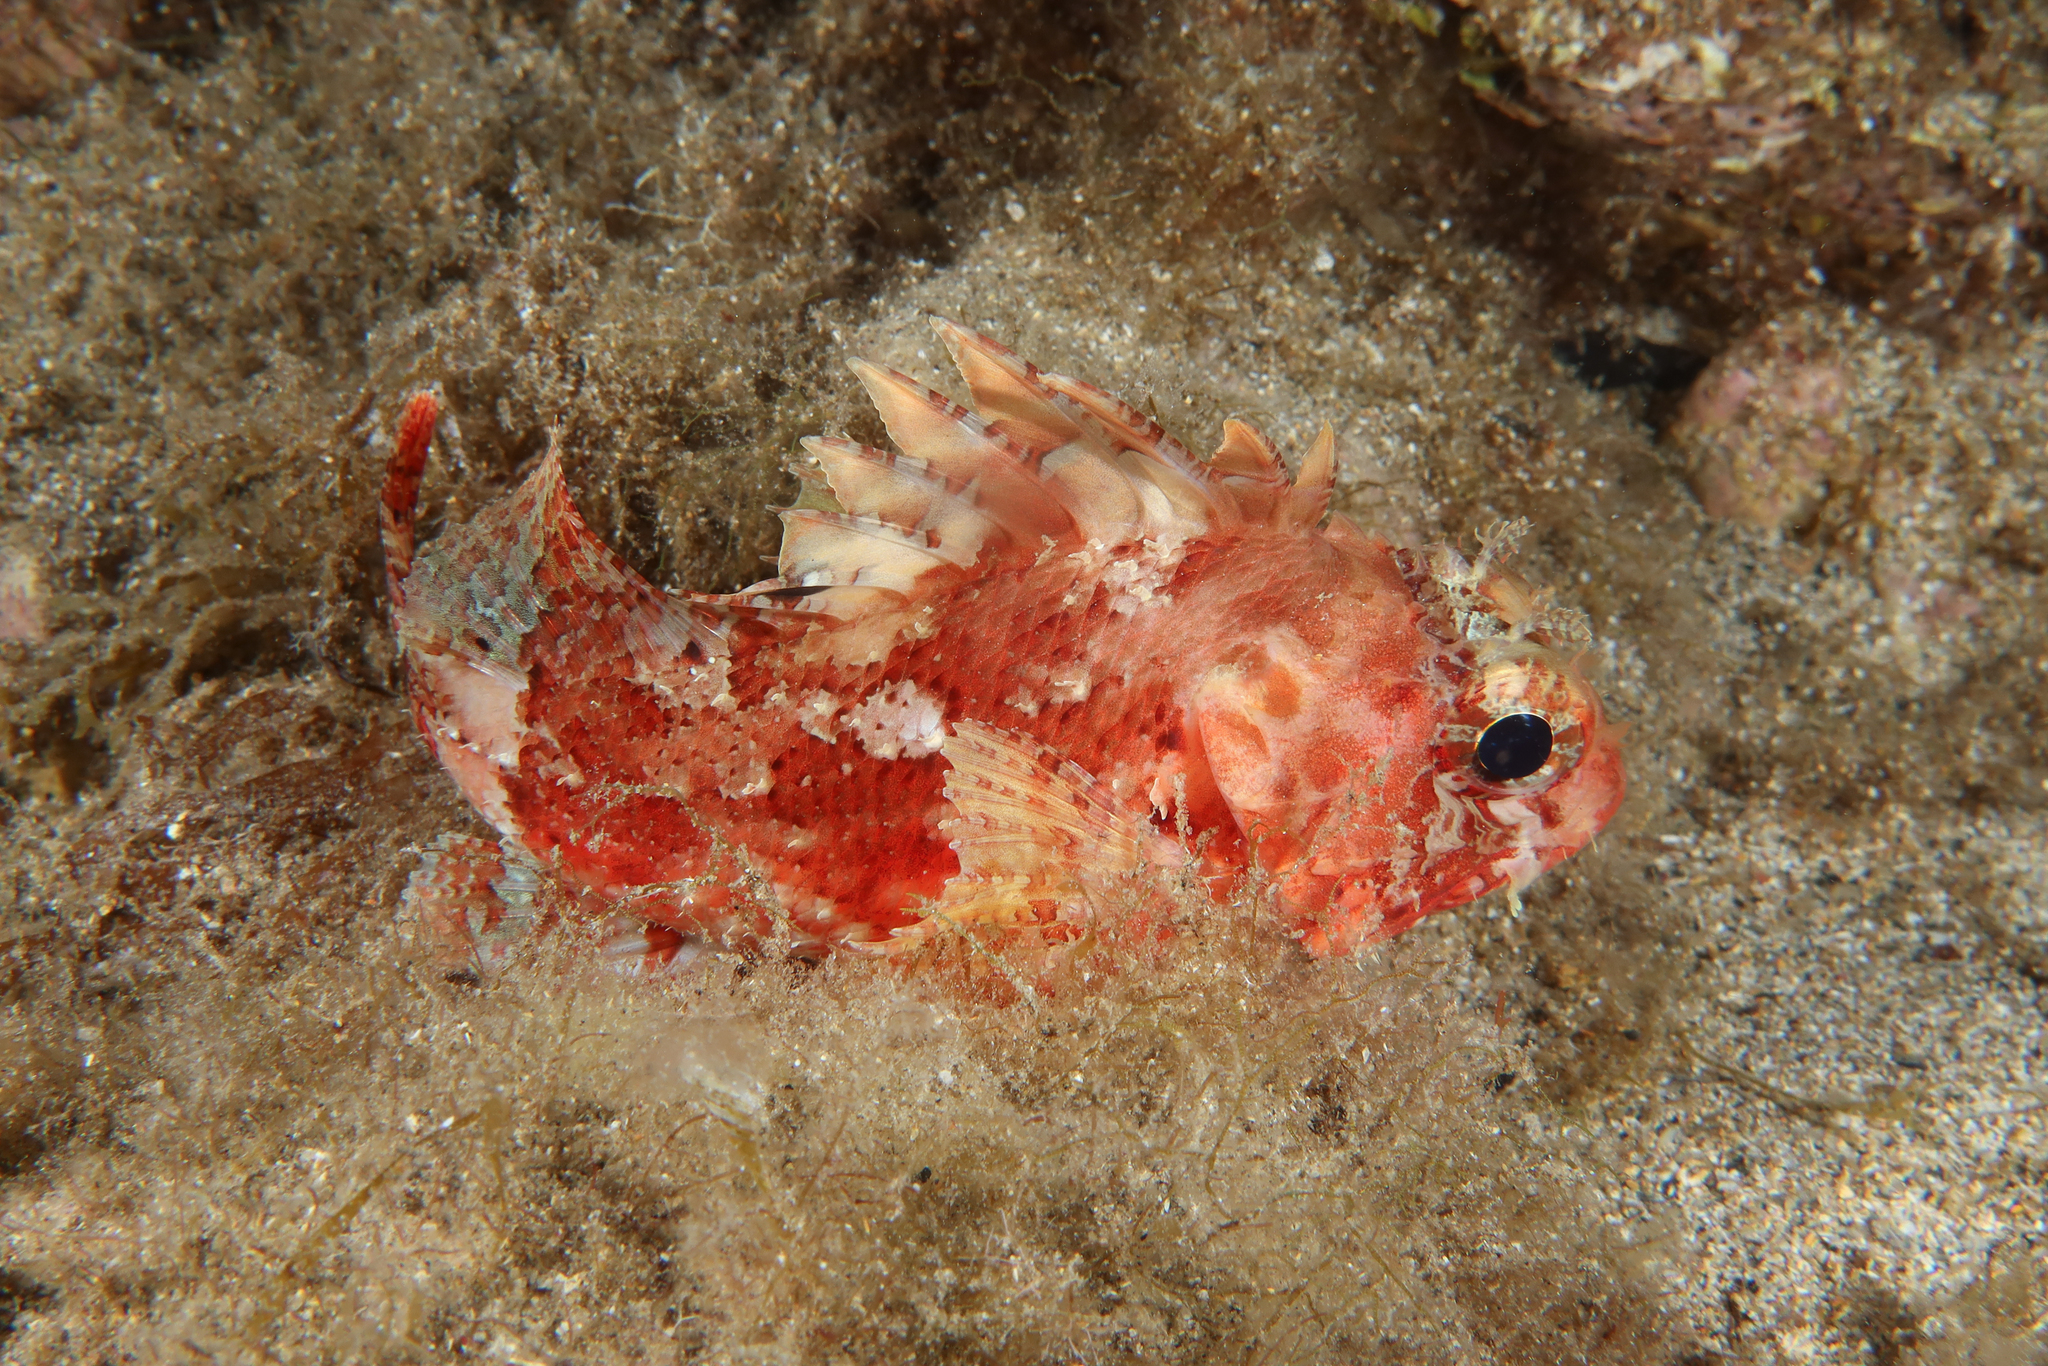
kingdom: Animalia
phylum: Chordata
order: Scorpaeniformes
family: Scorpaenidae
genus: Scorpaena
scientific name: Scorpaena notata
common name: Small red scorpionfish
